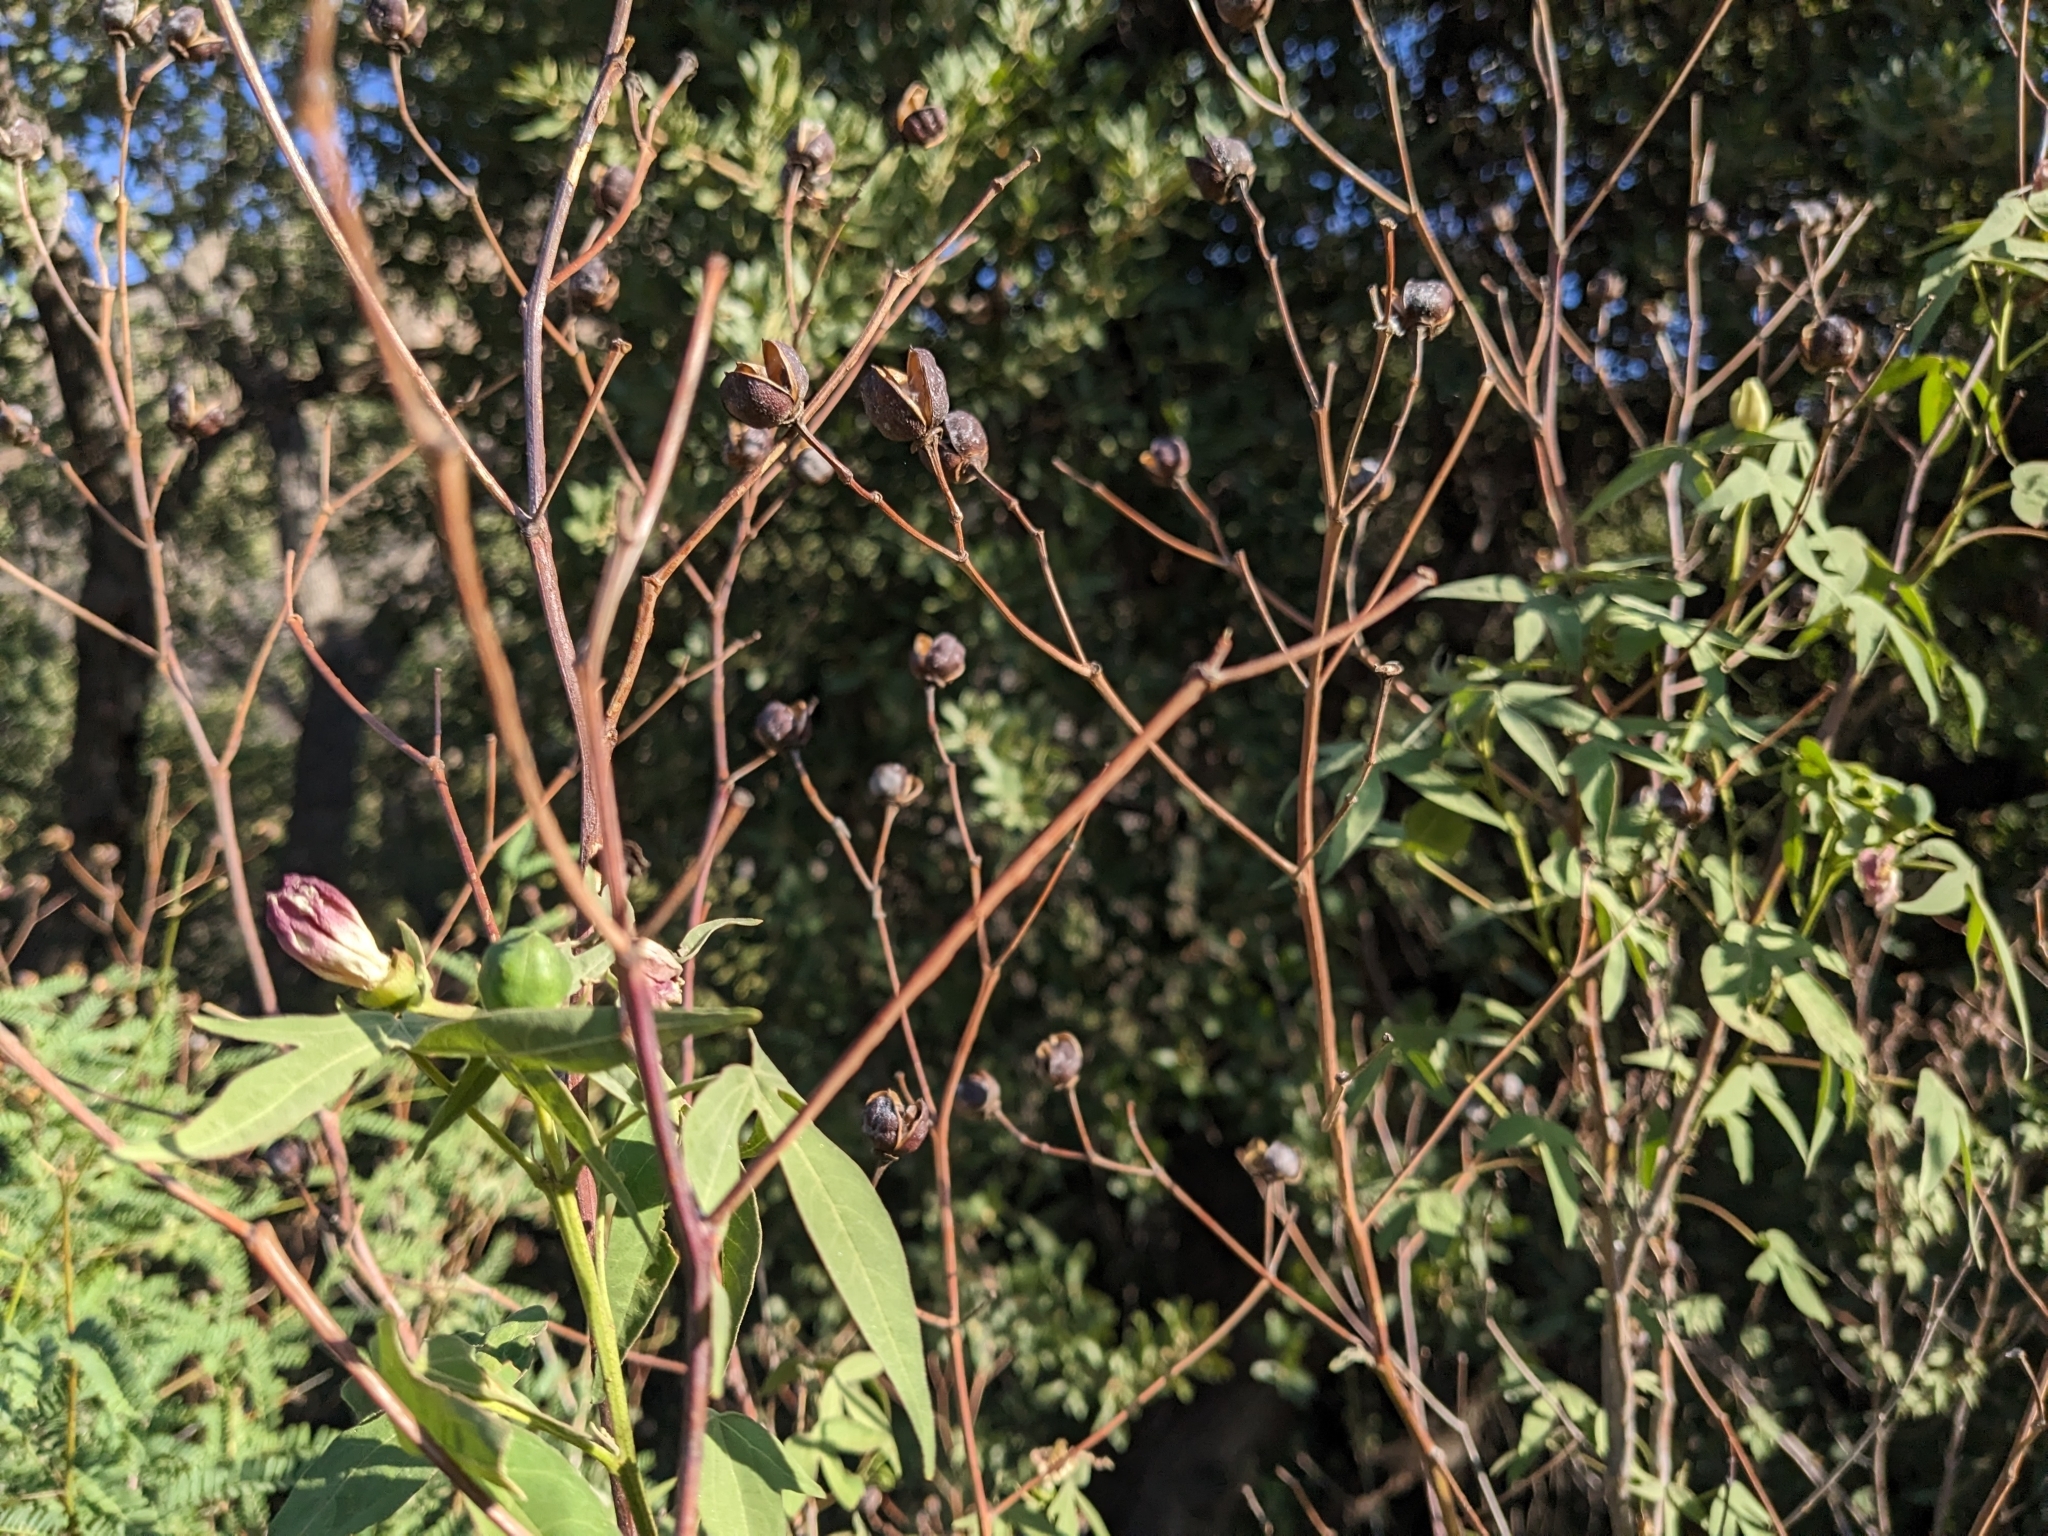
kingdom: Plantae
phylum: Tracheophyta
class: Magnoliopsida
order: Malvales
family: Malvaceae
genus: Gossypium
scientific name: Gossypium thurberi
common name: Desert cotton
